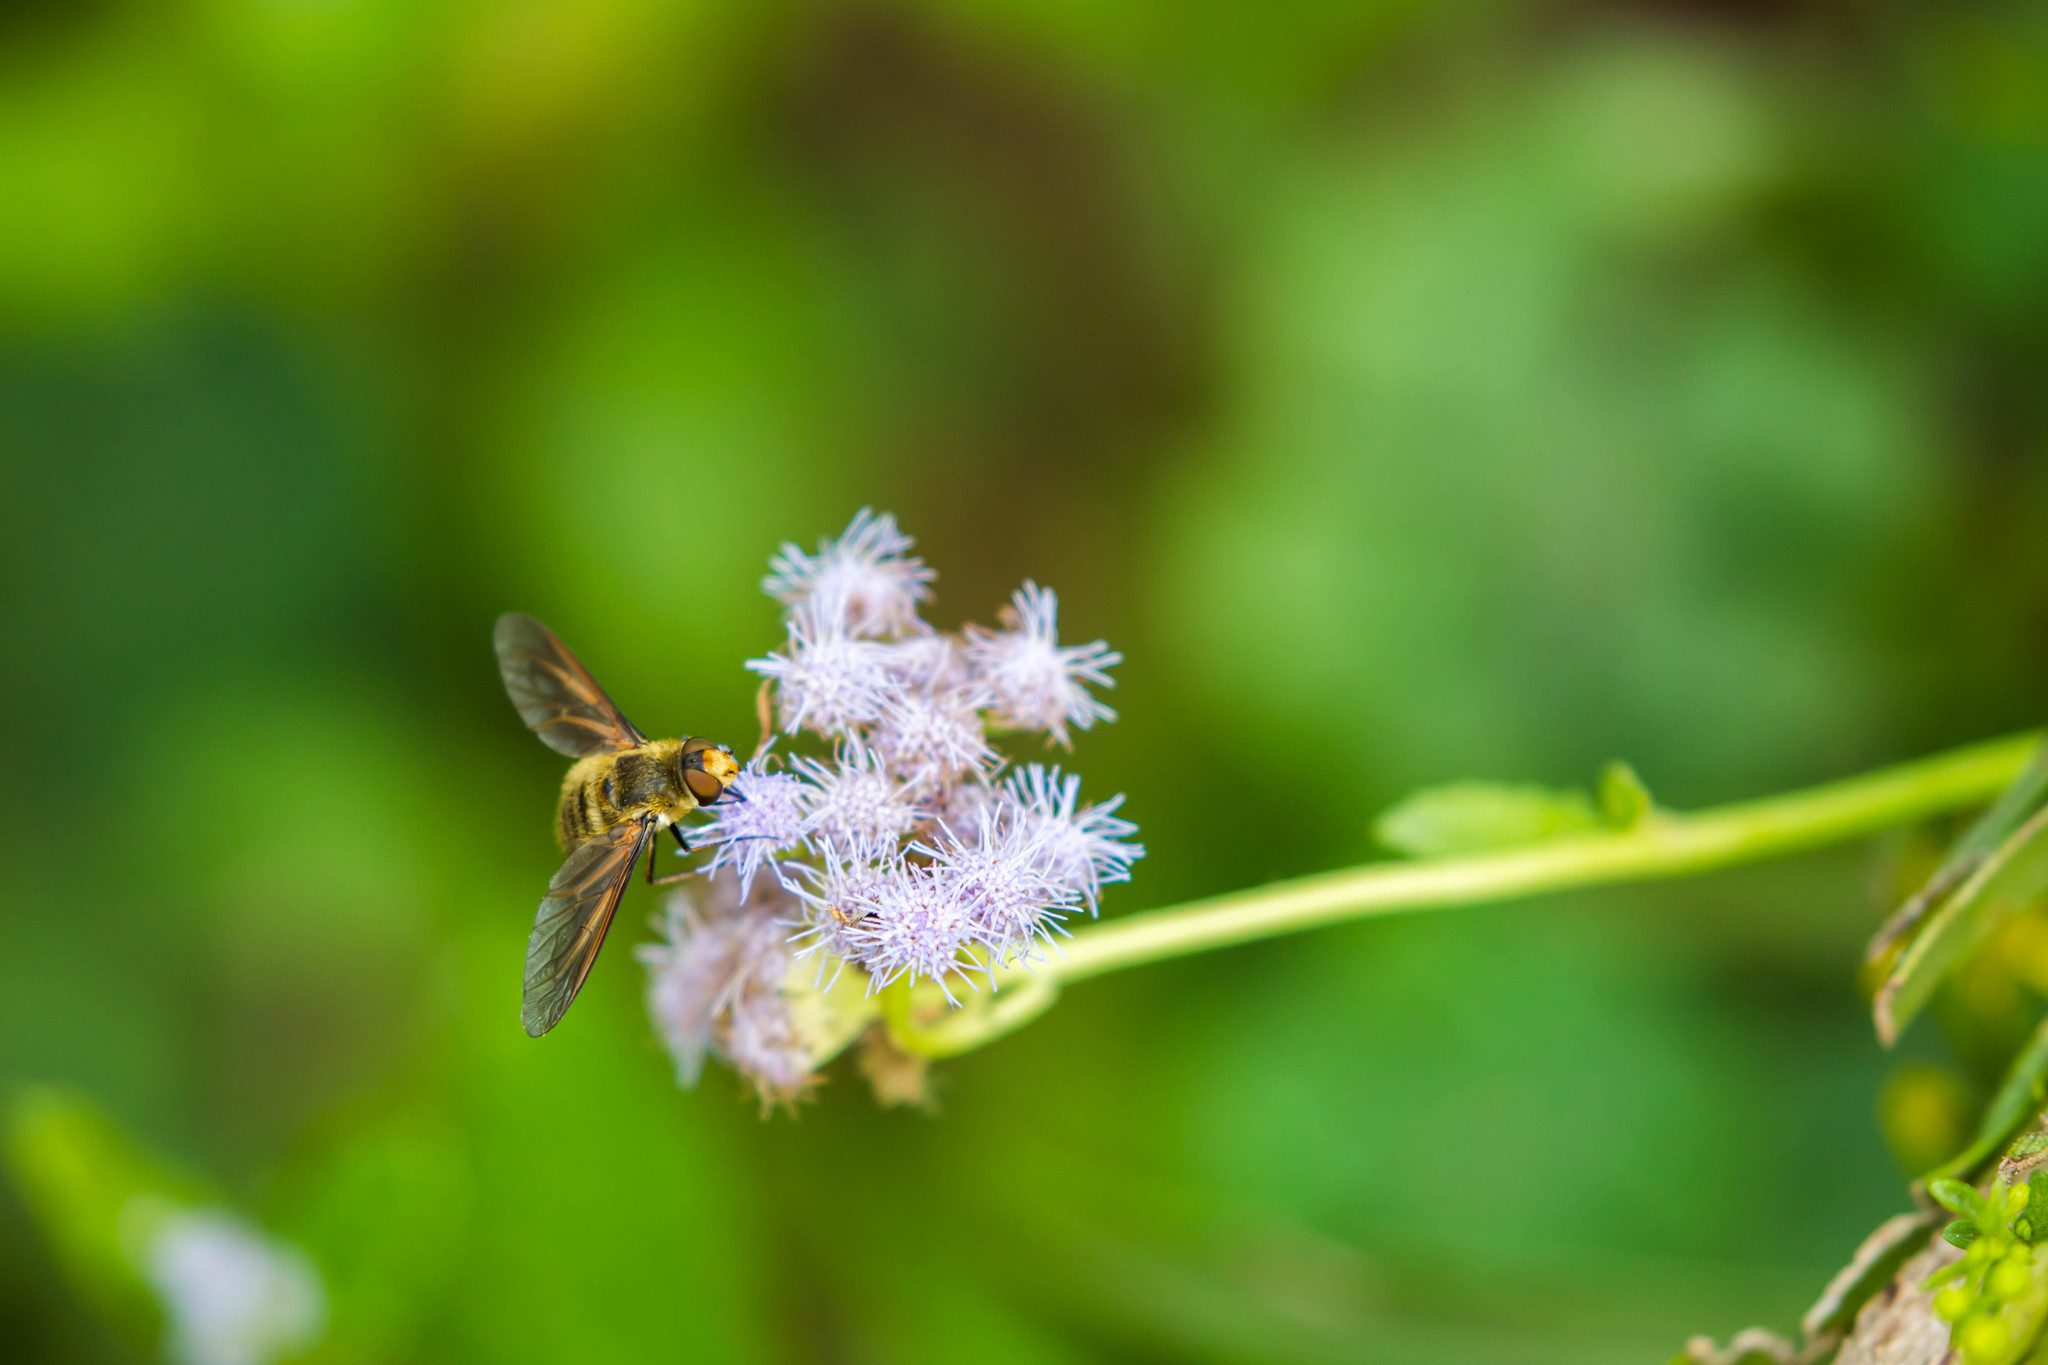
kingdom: Animalia
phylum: Arthropoda
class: Insecta
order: Diptera
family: Bombyliidae
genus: Poecilanthrax
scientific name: Poecilanthrax lucifer
